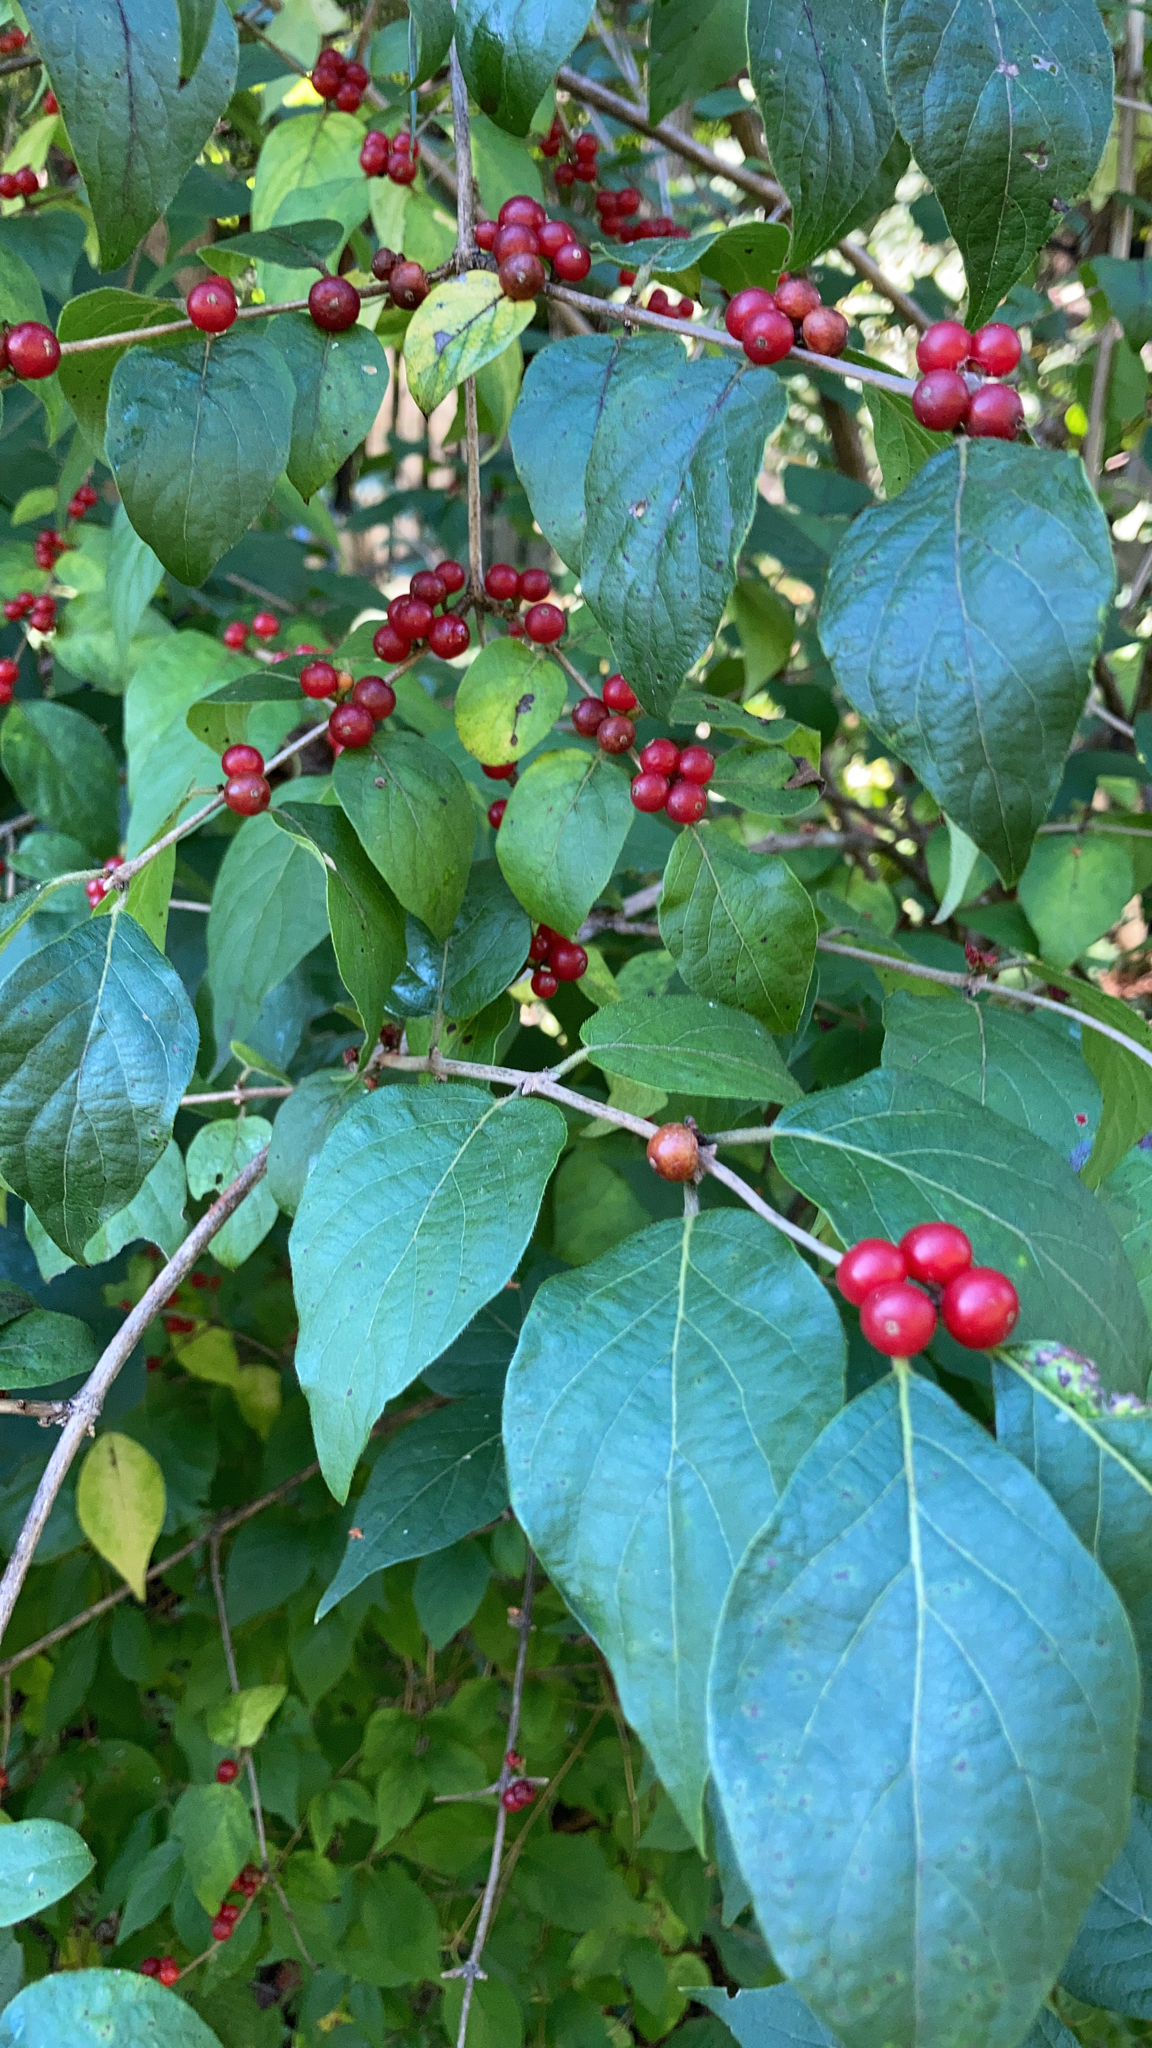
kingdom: Plantae
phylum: Tracheophyta
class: Magnoliopsida
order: Dipsacales
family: Caprifoliaceae
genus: Lonicera
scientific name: Lonicera maackii
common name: Amur honeysuckle
